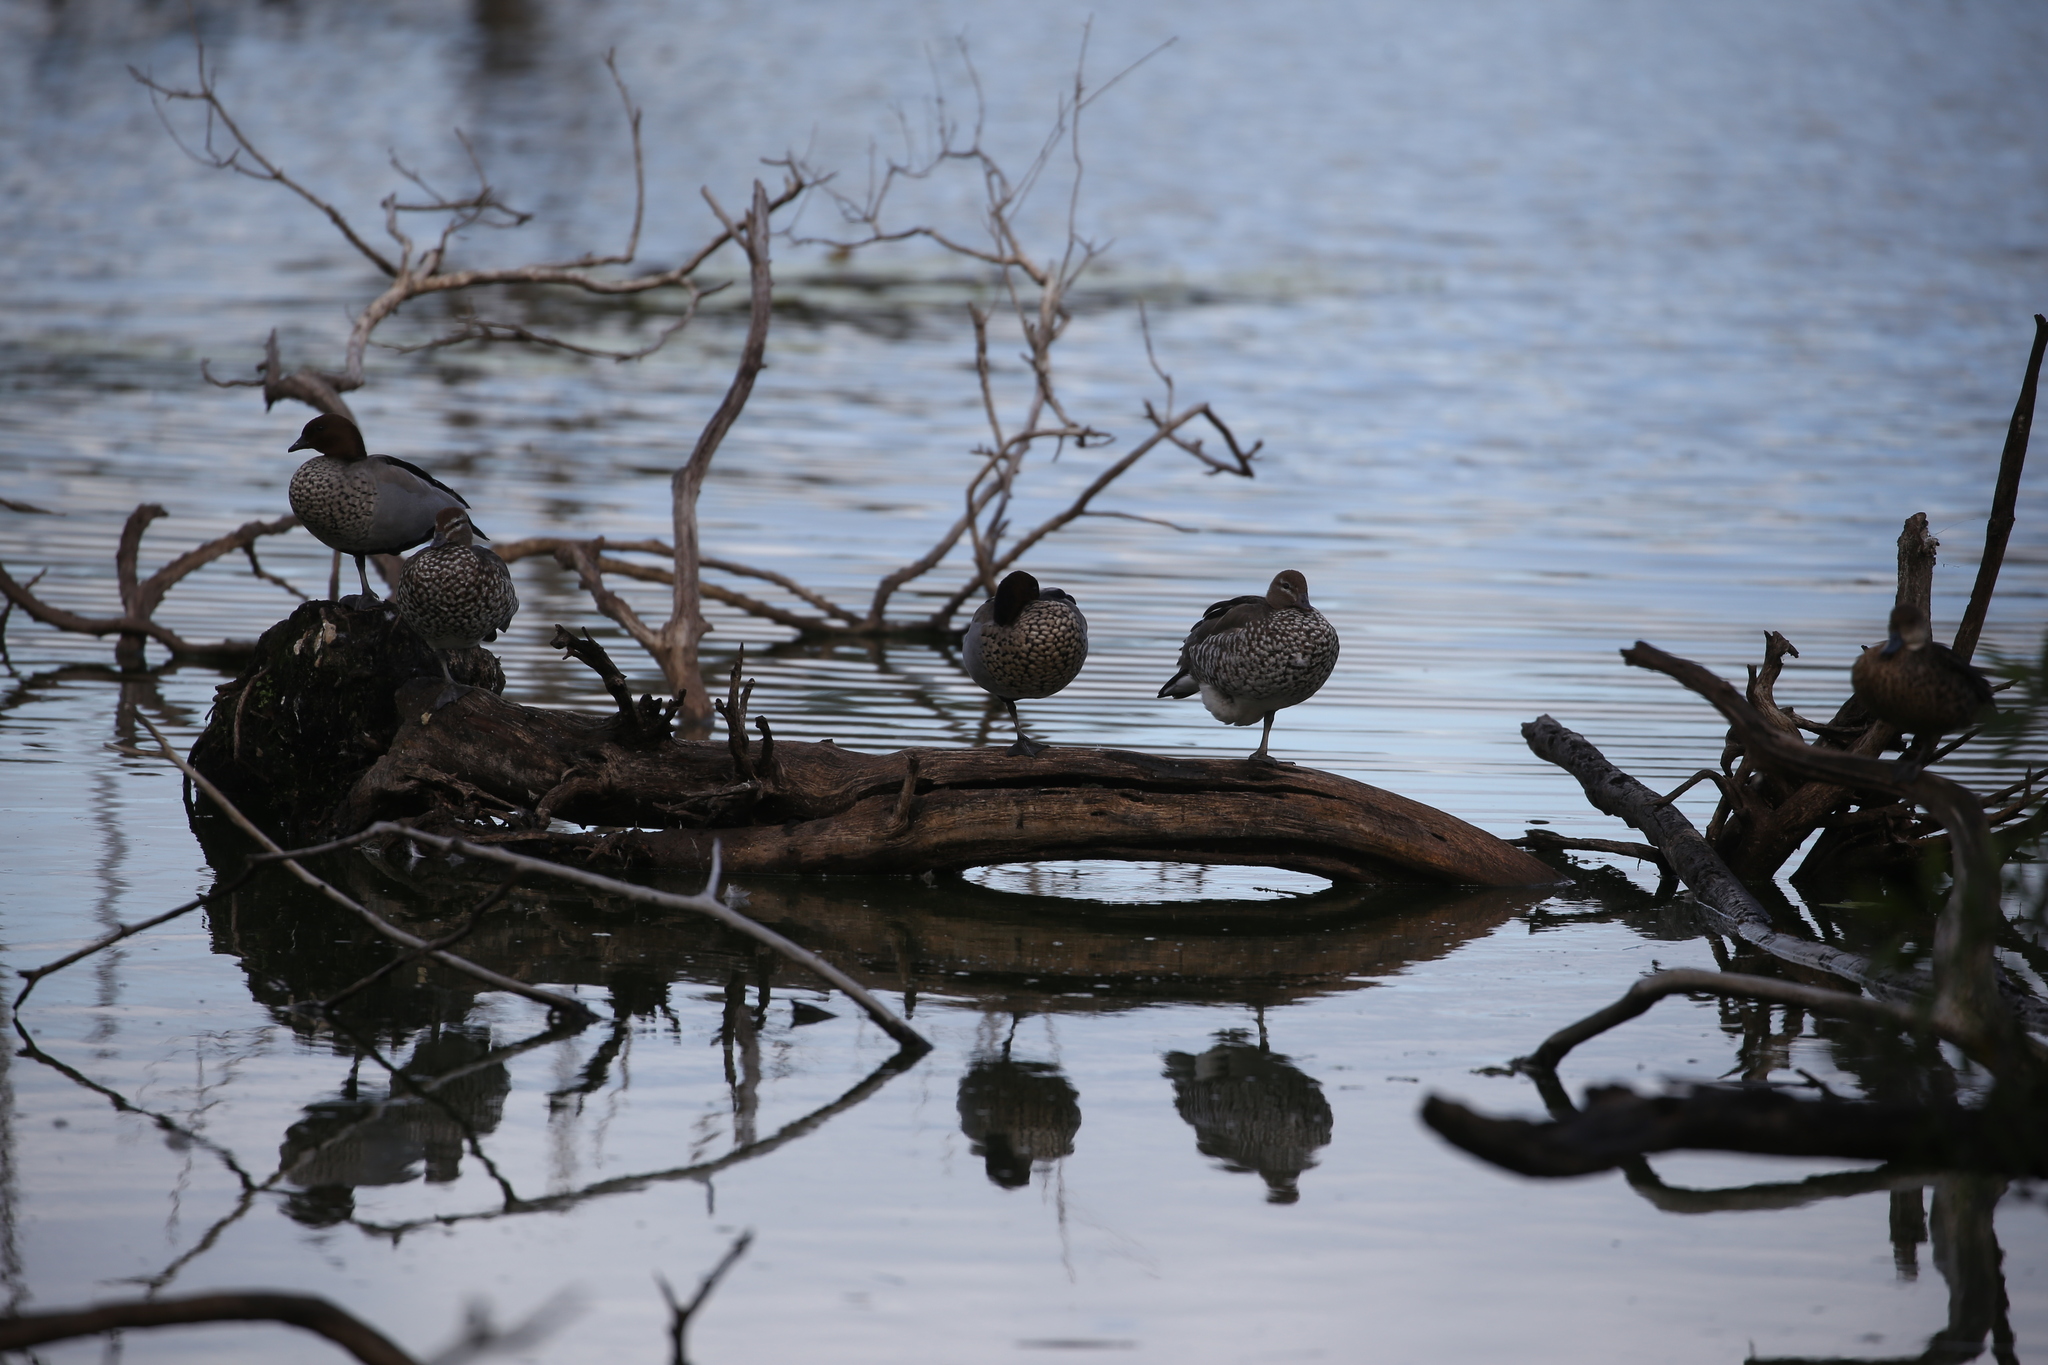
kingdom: Animalia
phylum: Chordata
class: Aves
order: Anseriformes
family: Anatidae
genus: Chenonetta
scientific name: Chenonetta jubata
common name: Maned duck
